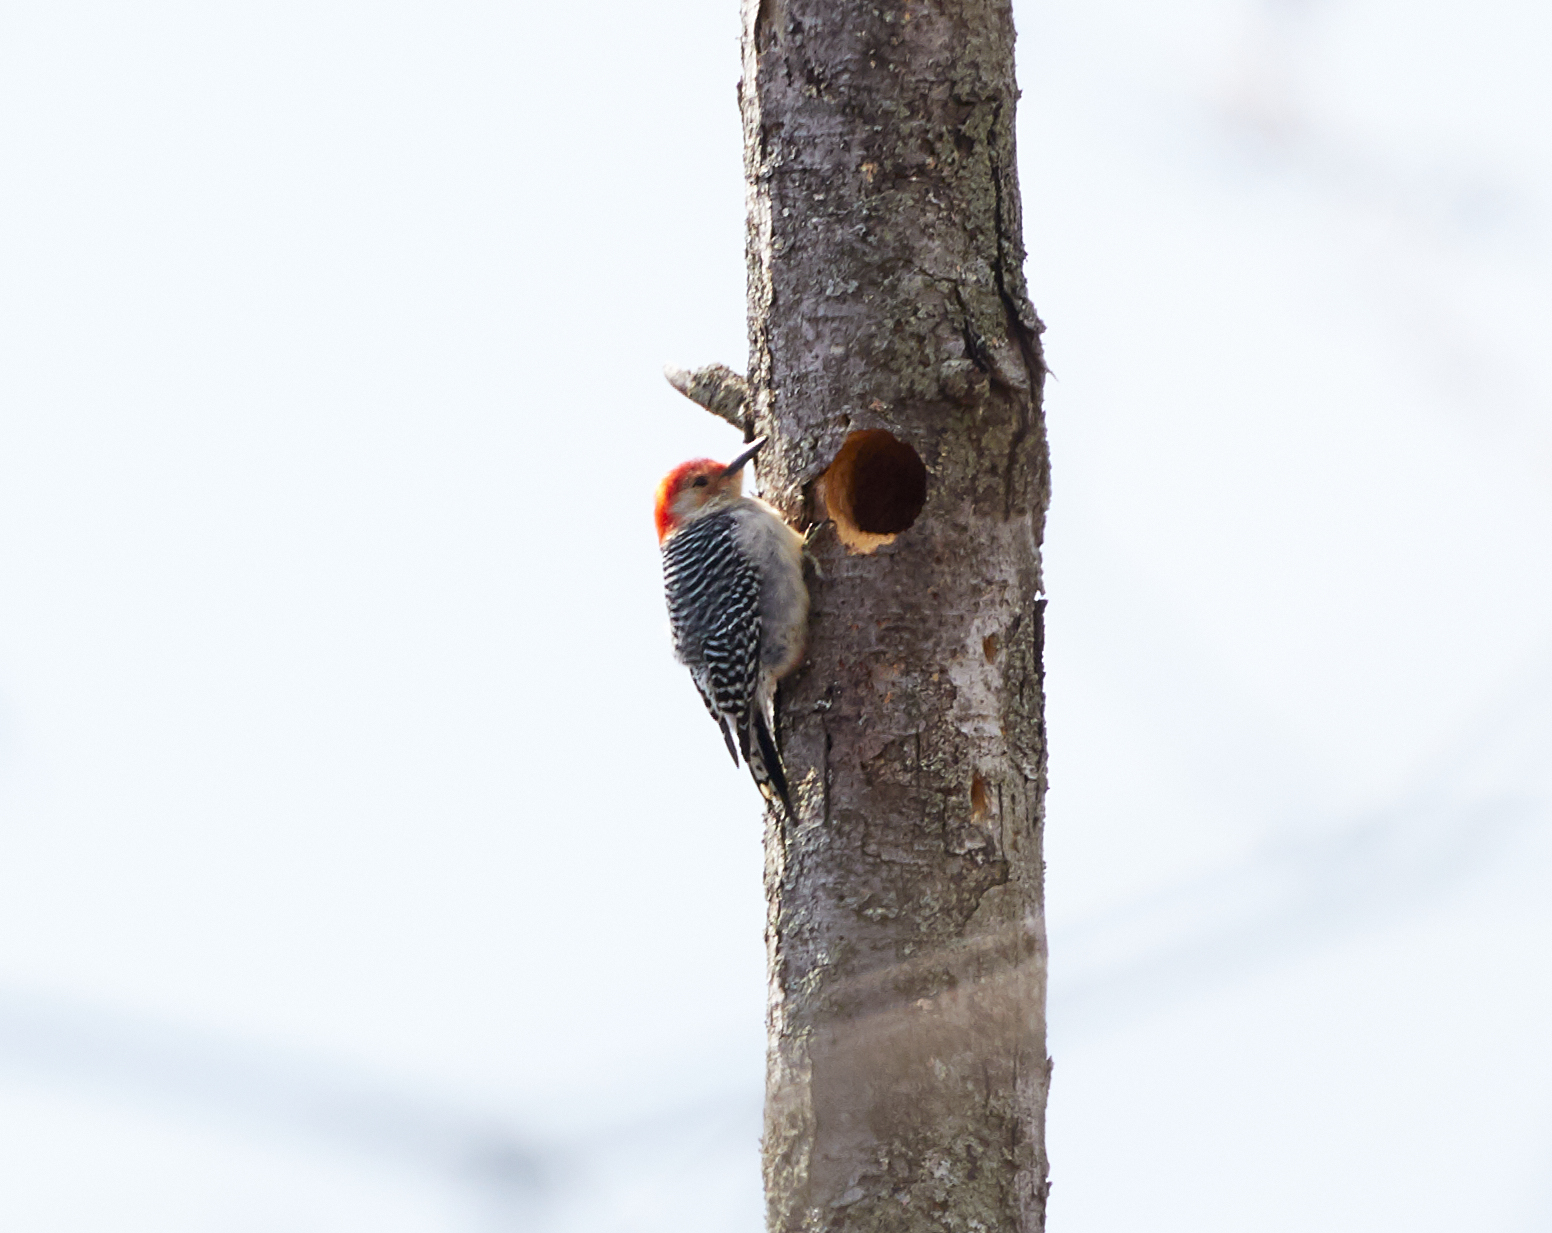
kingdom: Animalia
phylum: Chordata
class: Aves
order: Piciformes
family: Picidae
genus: Melanerpes
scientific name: Melanerpes carolinus
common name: Red-bellied woodpecker
